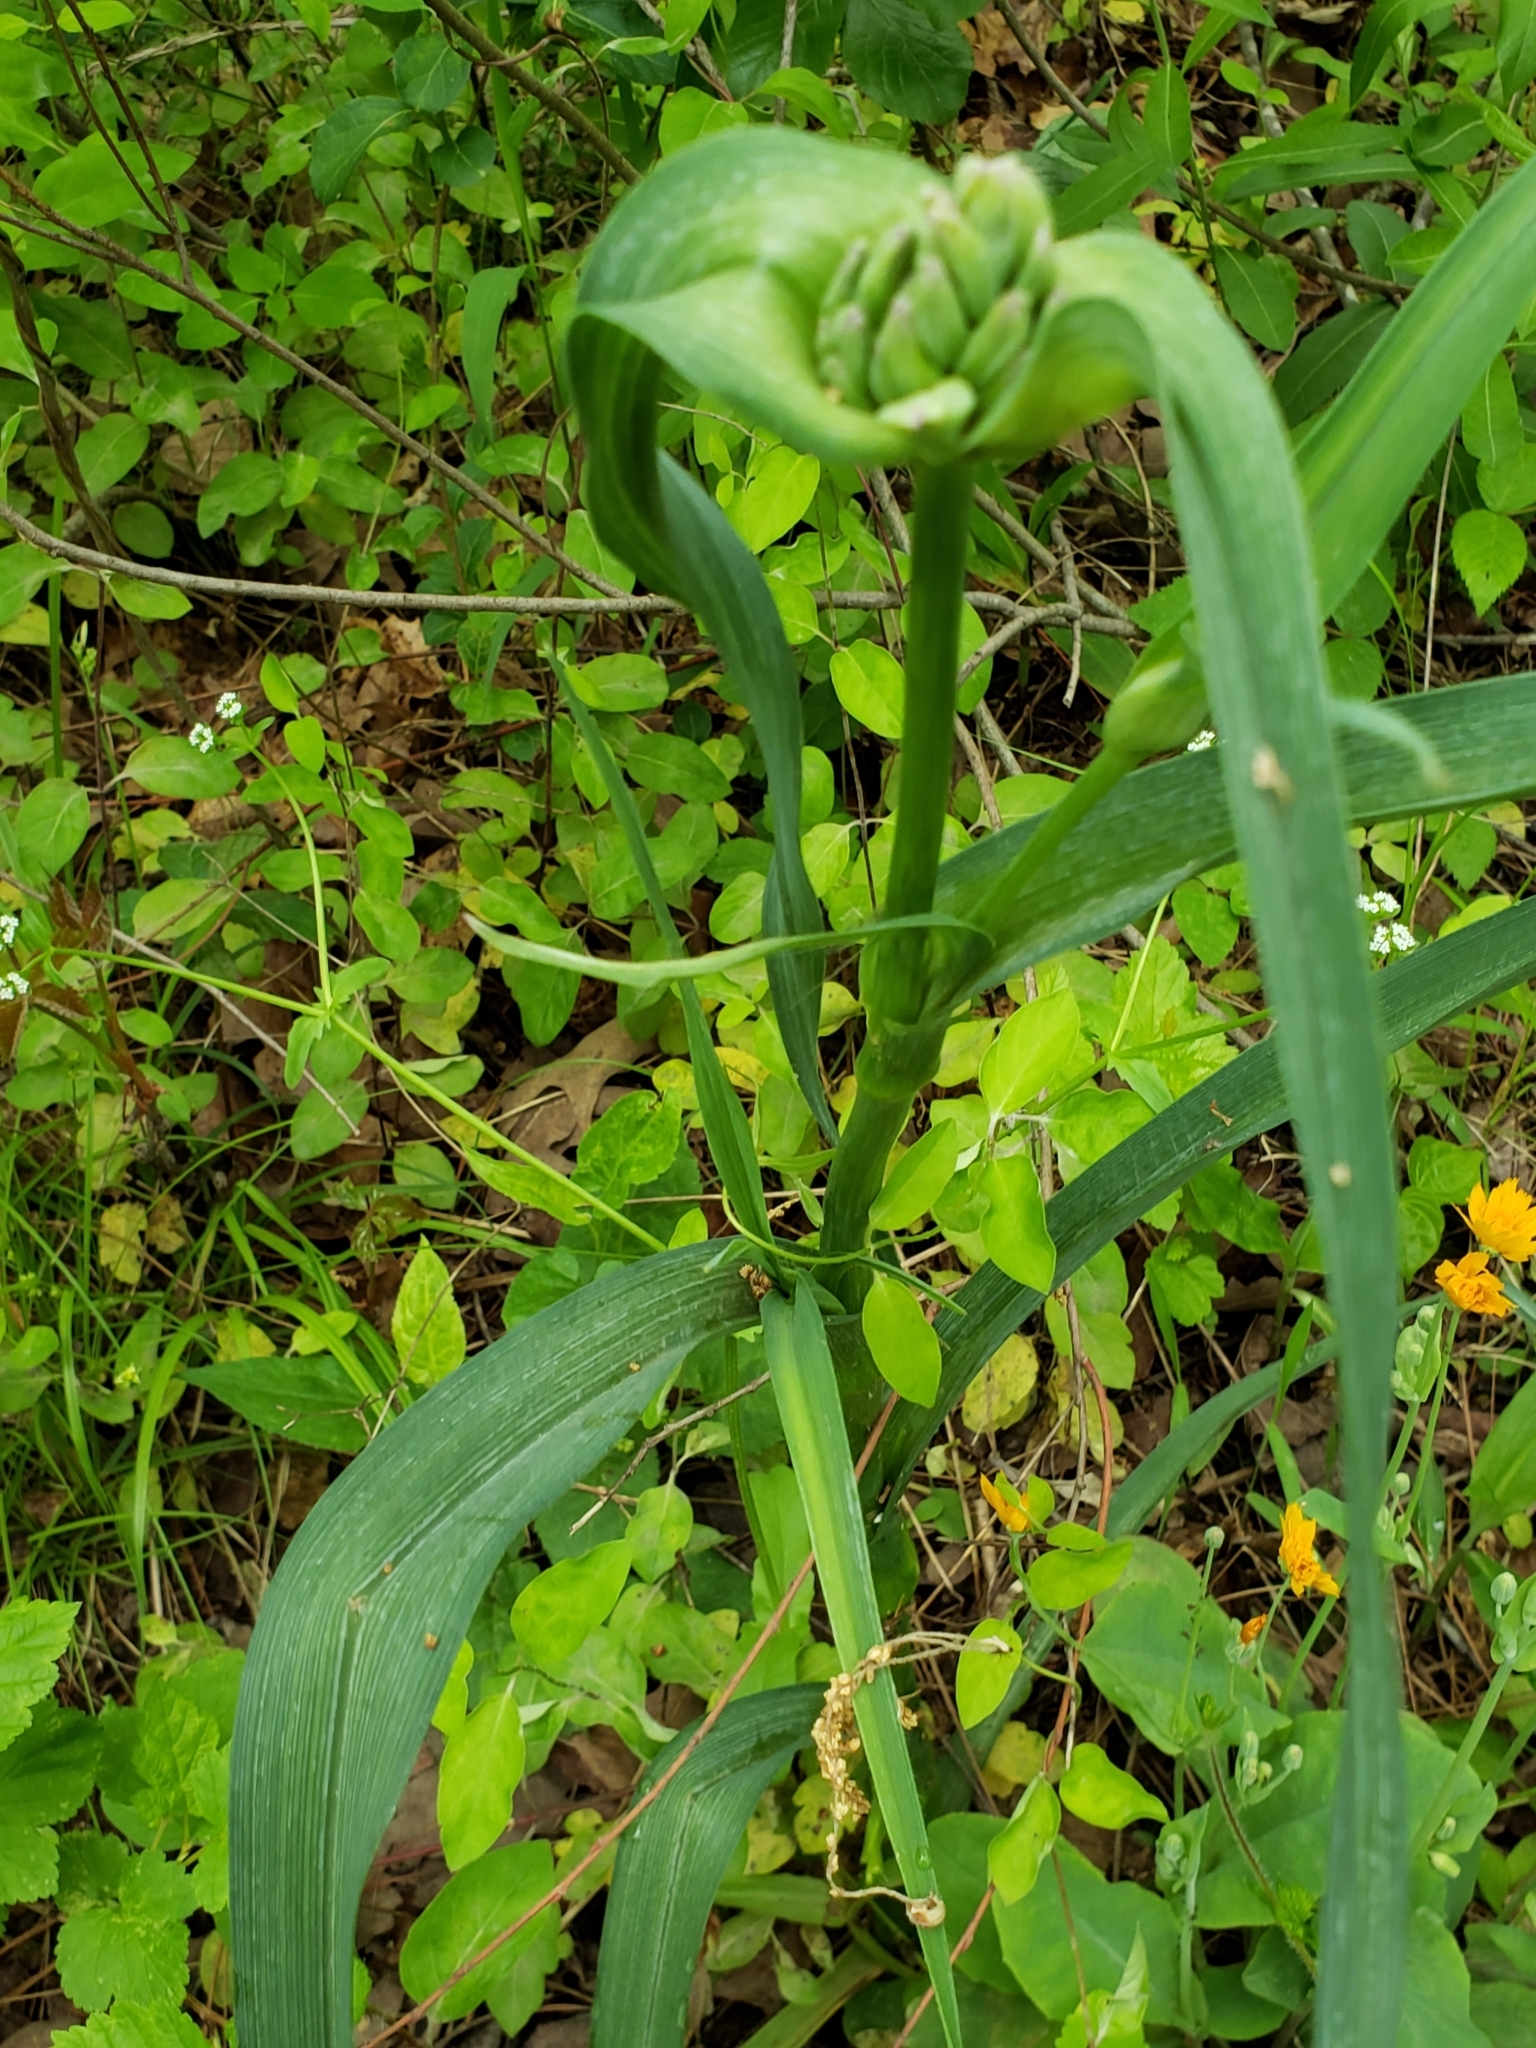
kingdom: Plantae
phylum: Tracheophyta
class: Liliopsida
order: Commelinales
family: Commelinaceae
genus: Tradescantia
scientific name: Tradescantia ohiensis
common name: Ohio spiderwort
